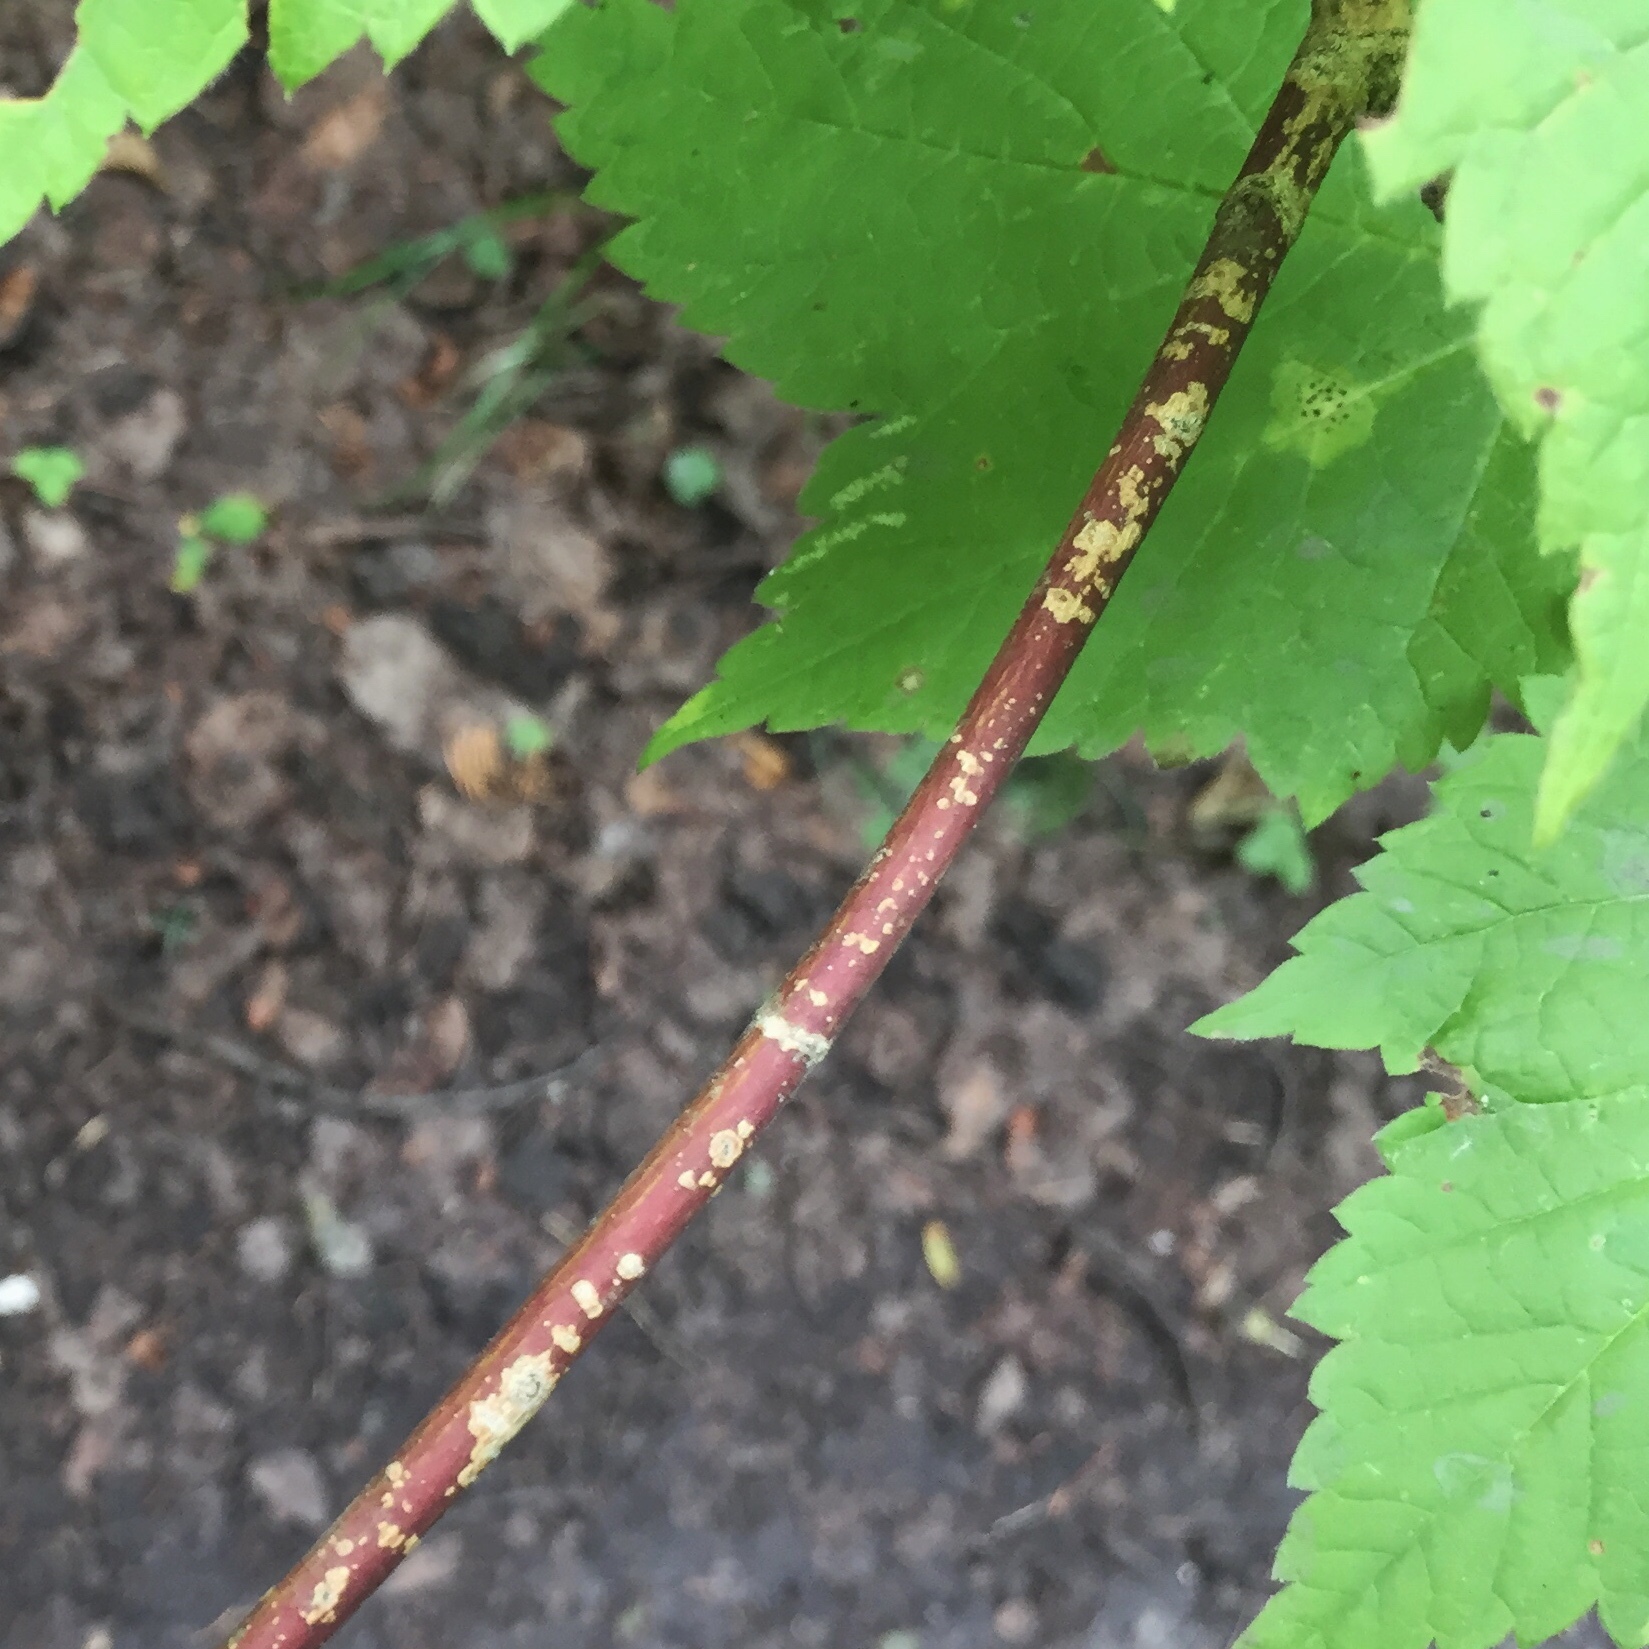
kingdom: Plantae
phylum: Tracheophyta
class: Magnoliopsida
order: Sapindales
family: Sapindaceae
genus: Acer
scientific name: Acer spicatum
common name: Mountain maple
